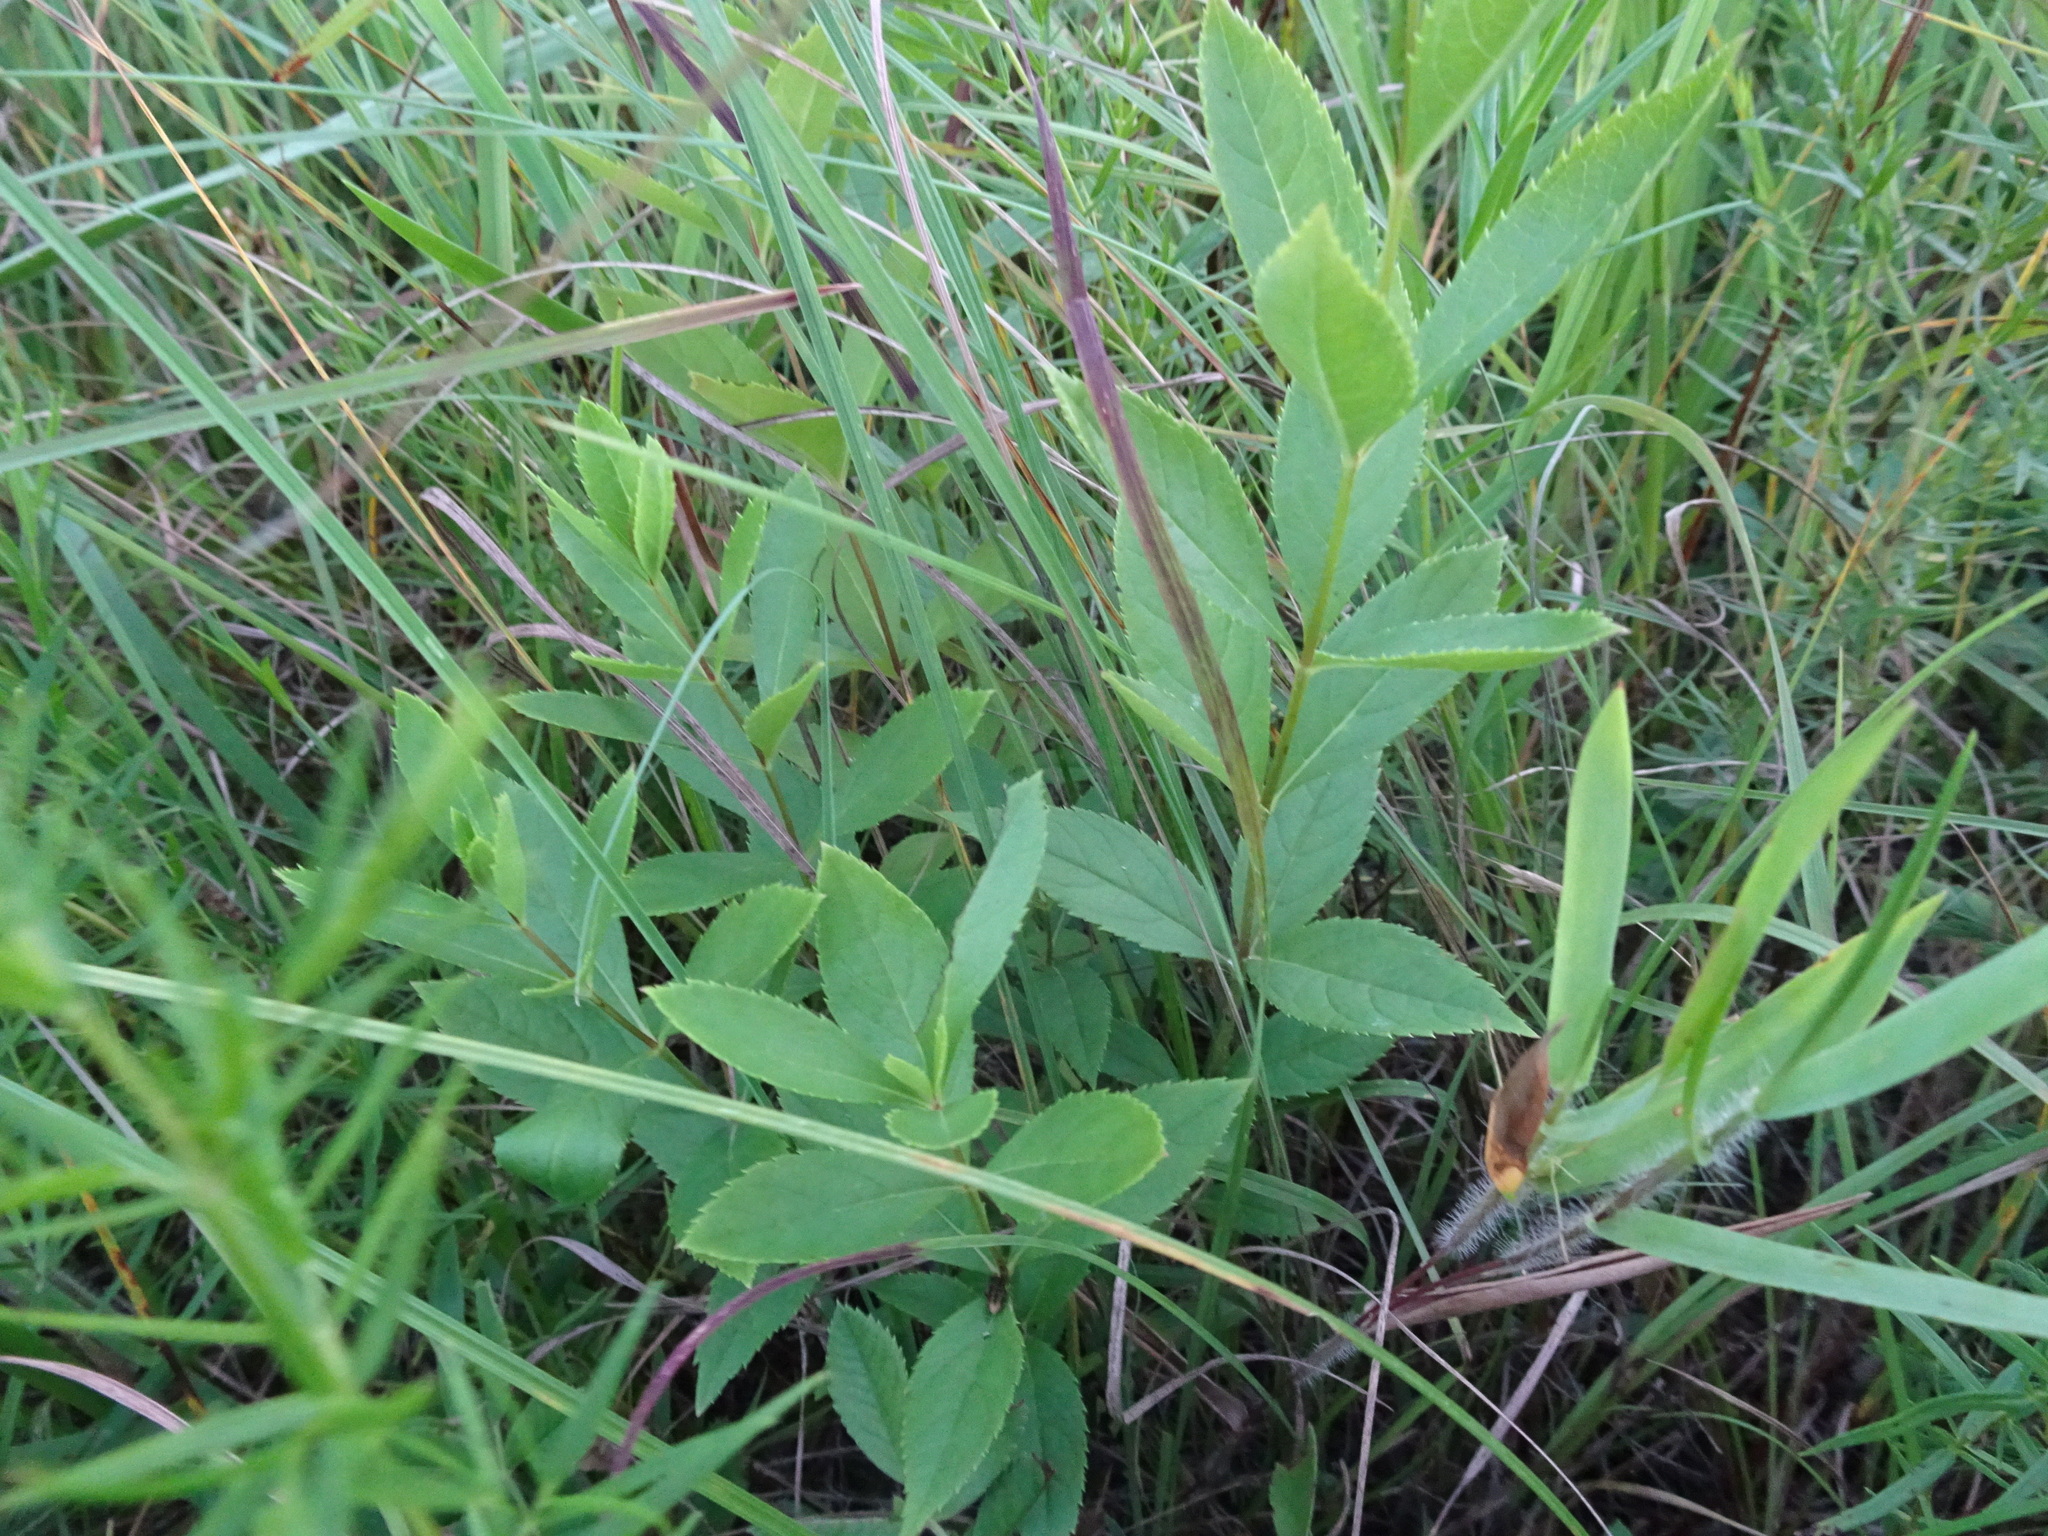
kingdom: Plantae
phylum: Tracheophyta
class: Magnoliopsida
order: Lamiales
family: Plantaginaceae
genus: Veronicastrum
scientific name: Veronicastrum virginicum
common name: Blackroot
